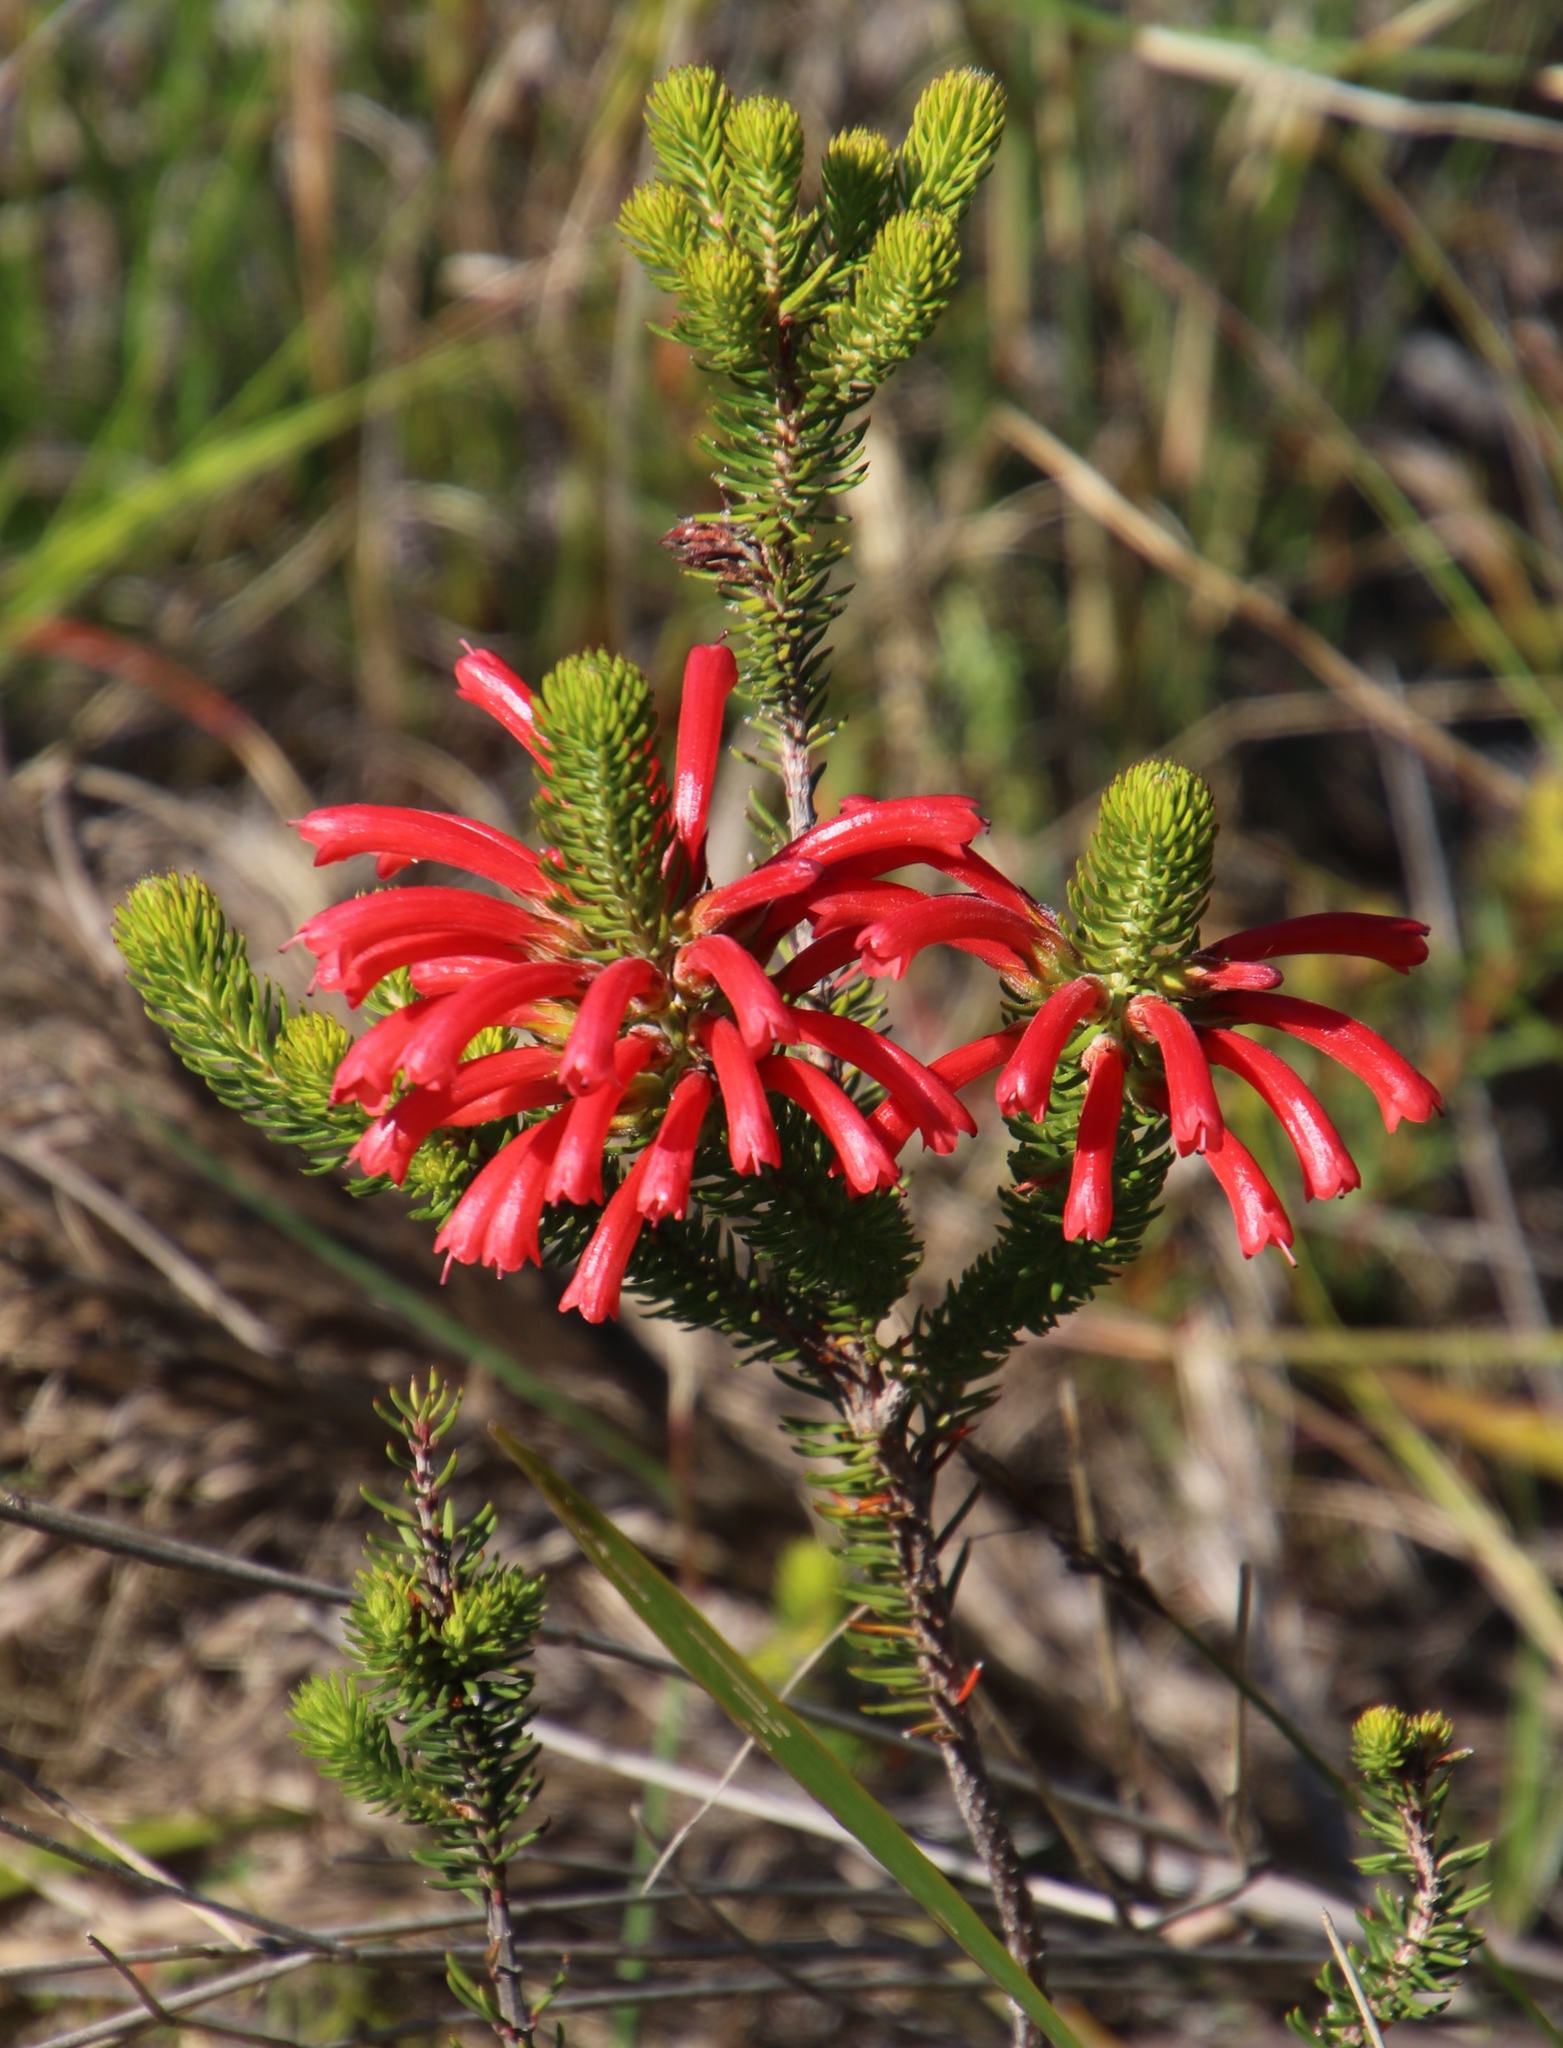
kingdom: Plantae
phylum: Tracheophyta
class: Magnoliopsida
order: Ericales
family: Ericaceae
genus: Erica
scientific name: Erica abietina
